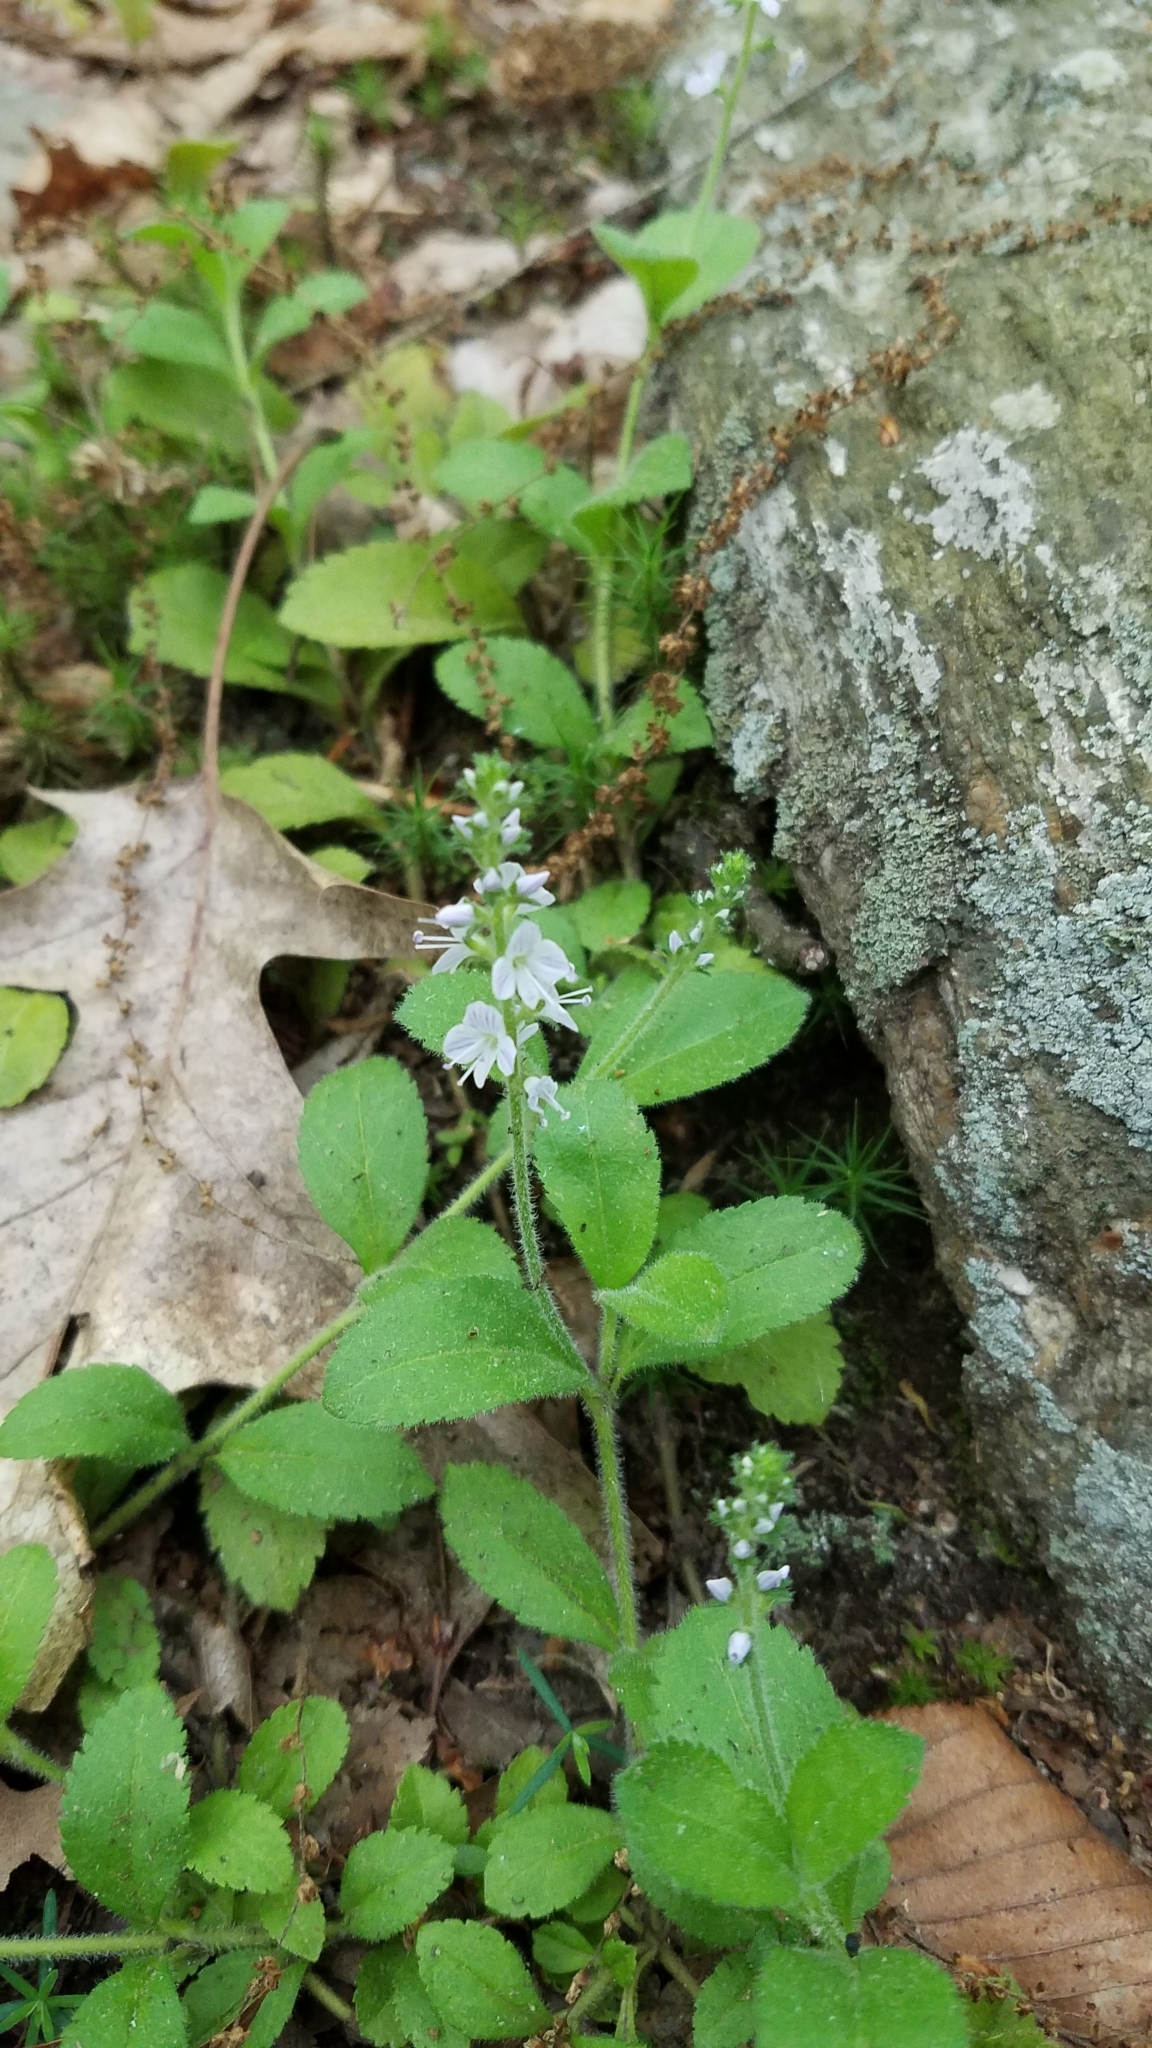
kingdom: Plantae
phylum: Tracheophyta
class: Magnoliopsida
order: Lamiales
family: Plantaginaceae
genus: Veronica
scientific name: Veronica officinalis
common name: Common speedwell
